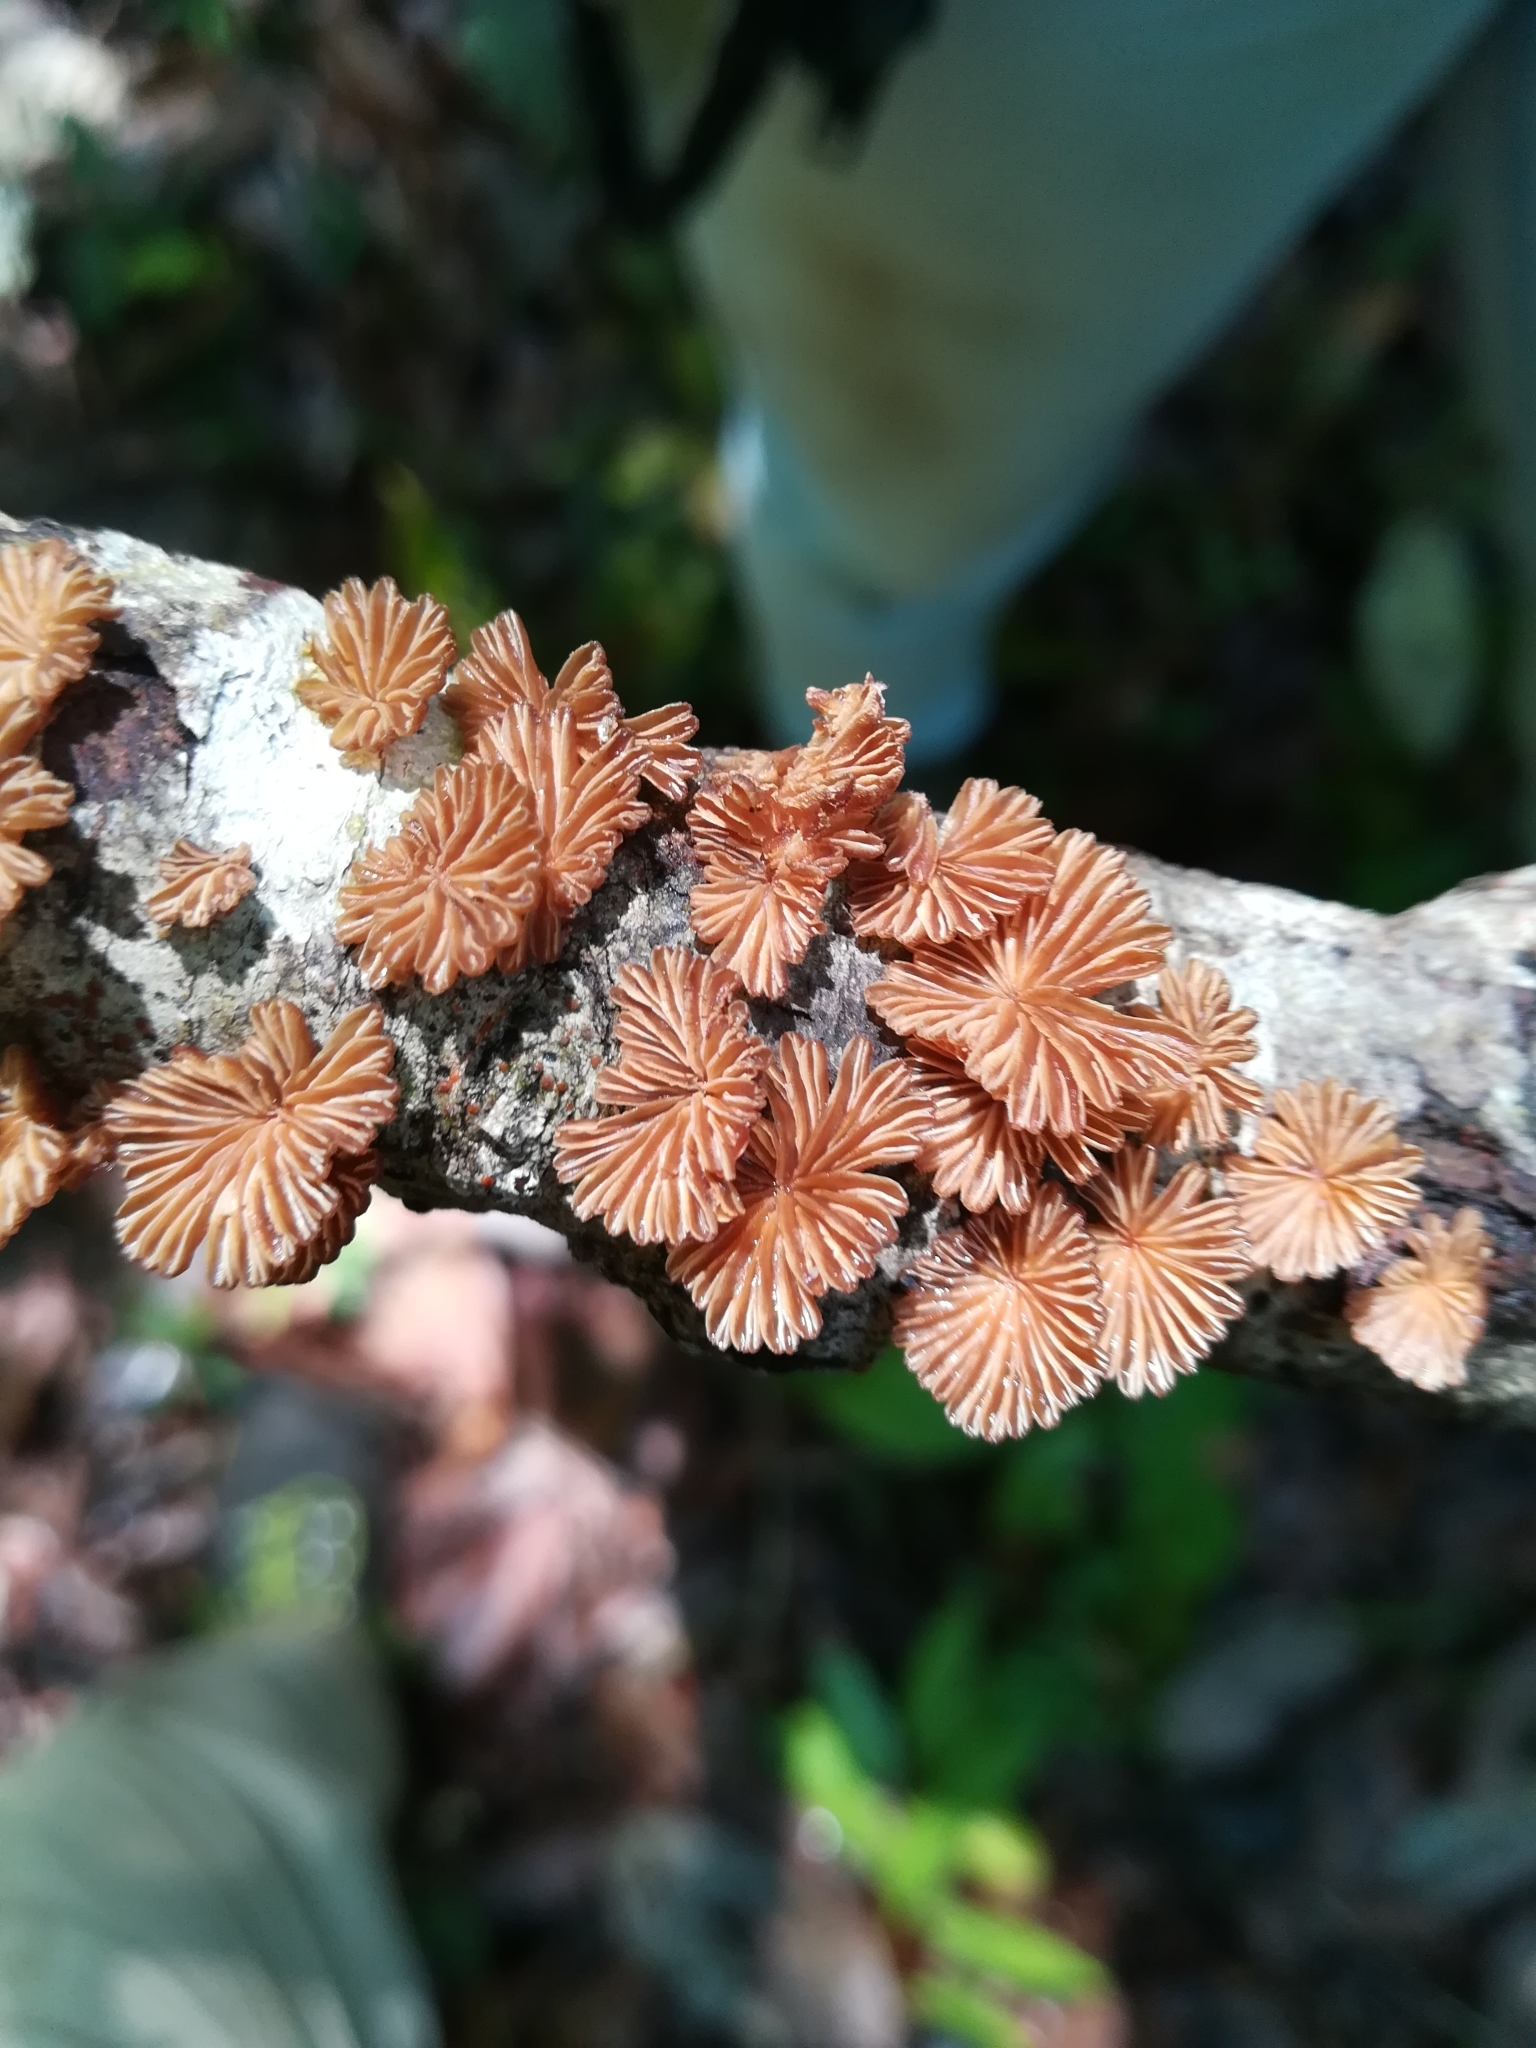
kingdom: Fungi
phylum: Basidiomycota
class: Agaricomycetes
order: Agaricales
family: Schizophyllaceae
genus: Schizophyllum
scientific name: Schizophyllum umbrinum
